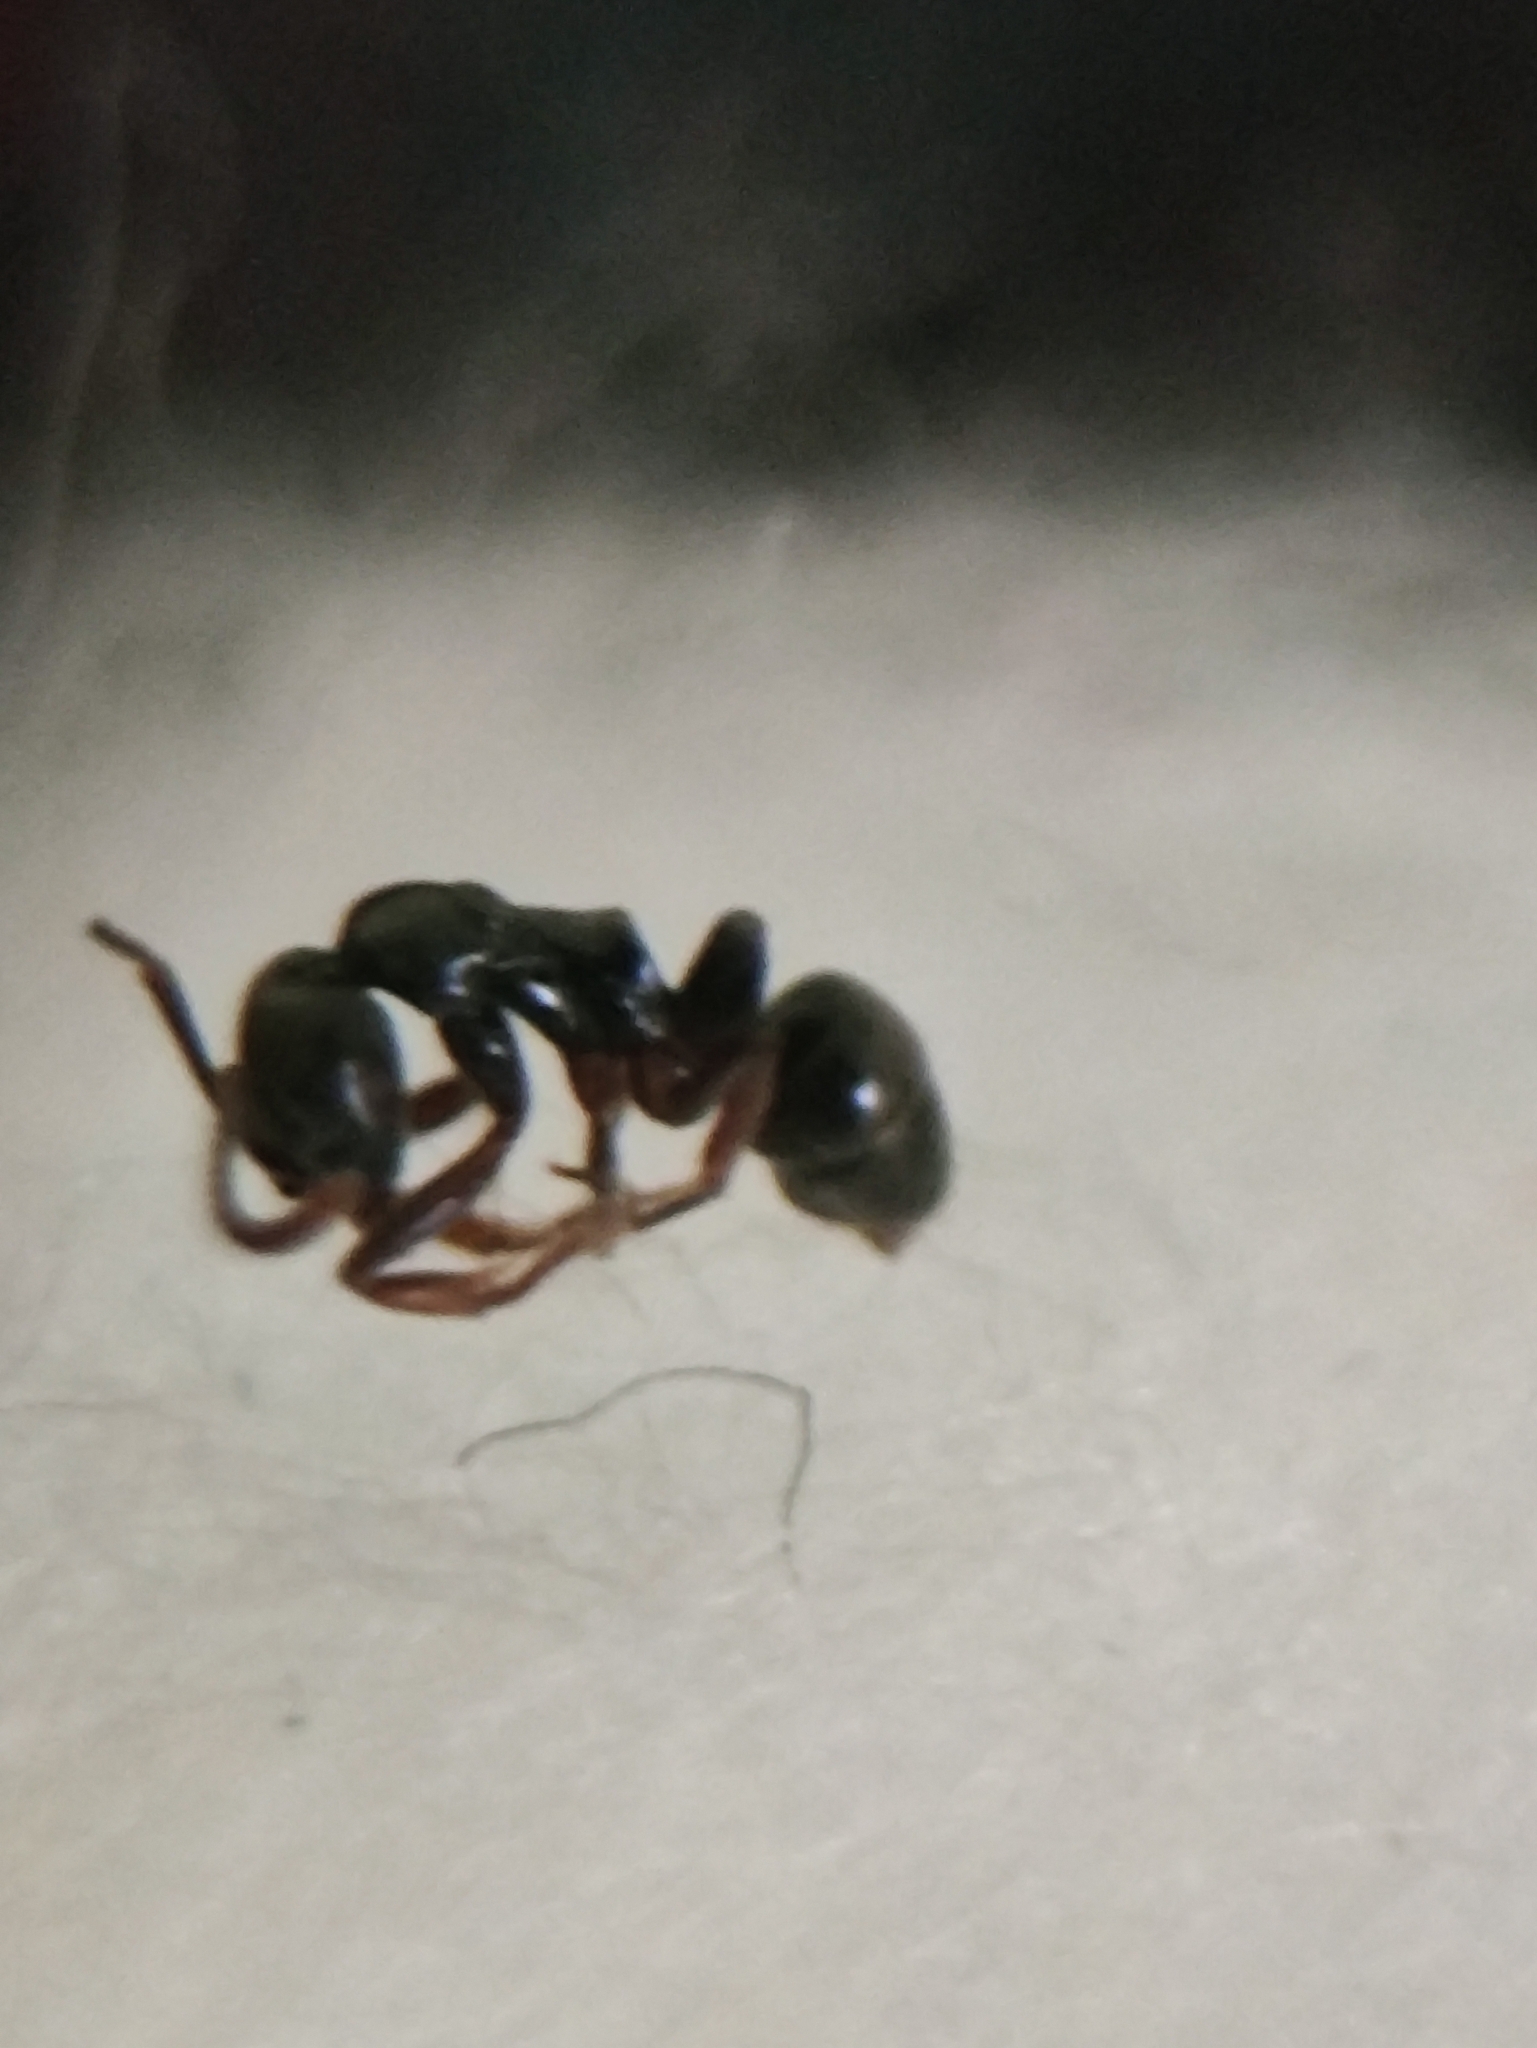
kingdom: Animalia
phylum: Arthropoda
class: Insecta
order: Hymenoptera
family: Formicidae
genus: Brachyponera
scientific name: Brachyponera obscurans
